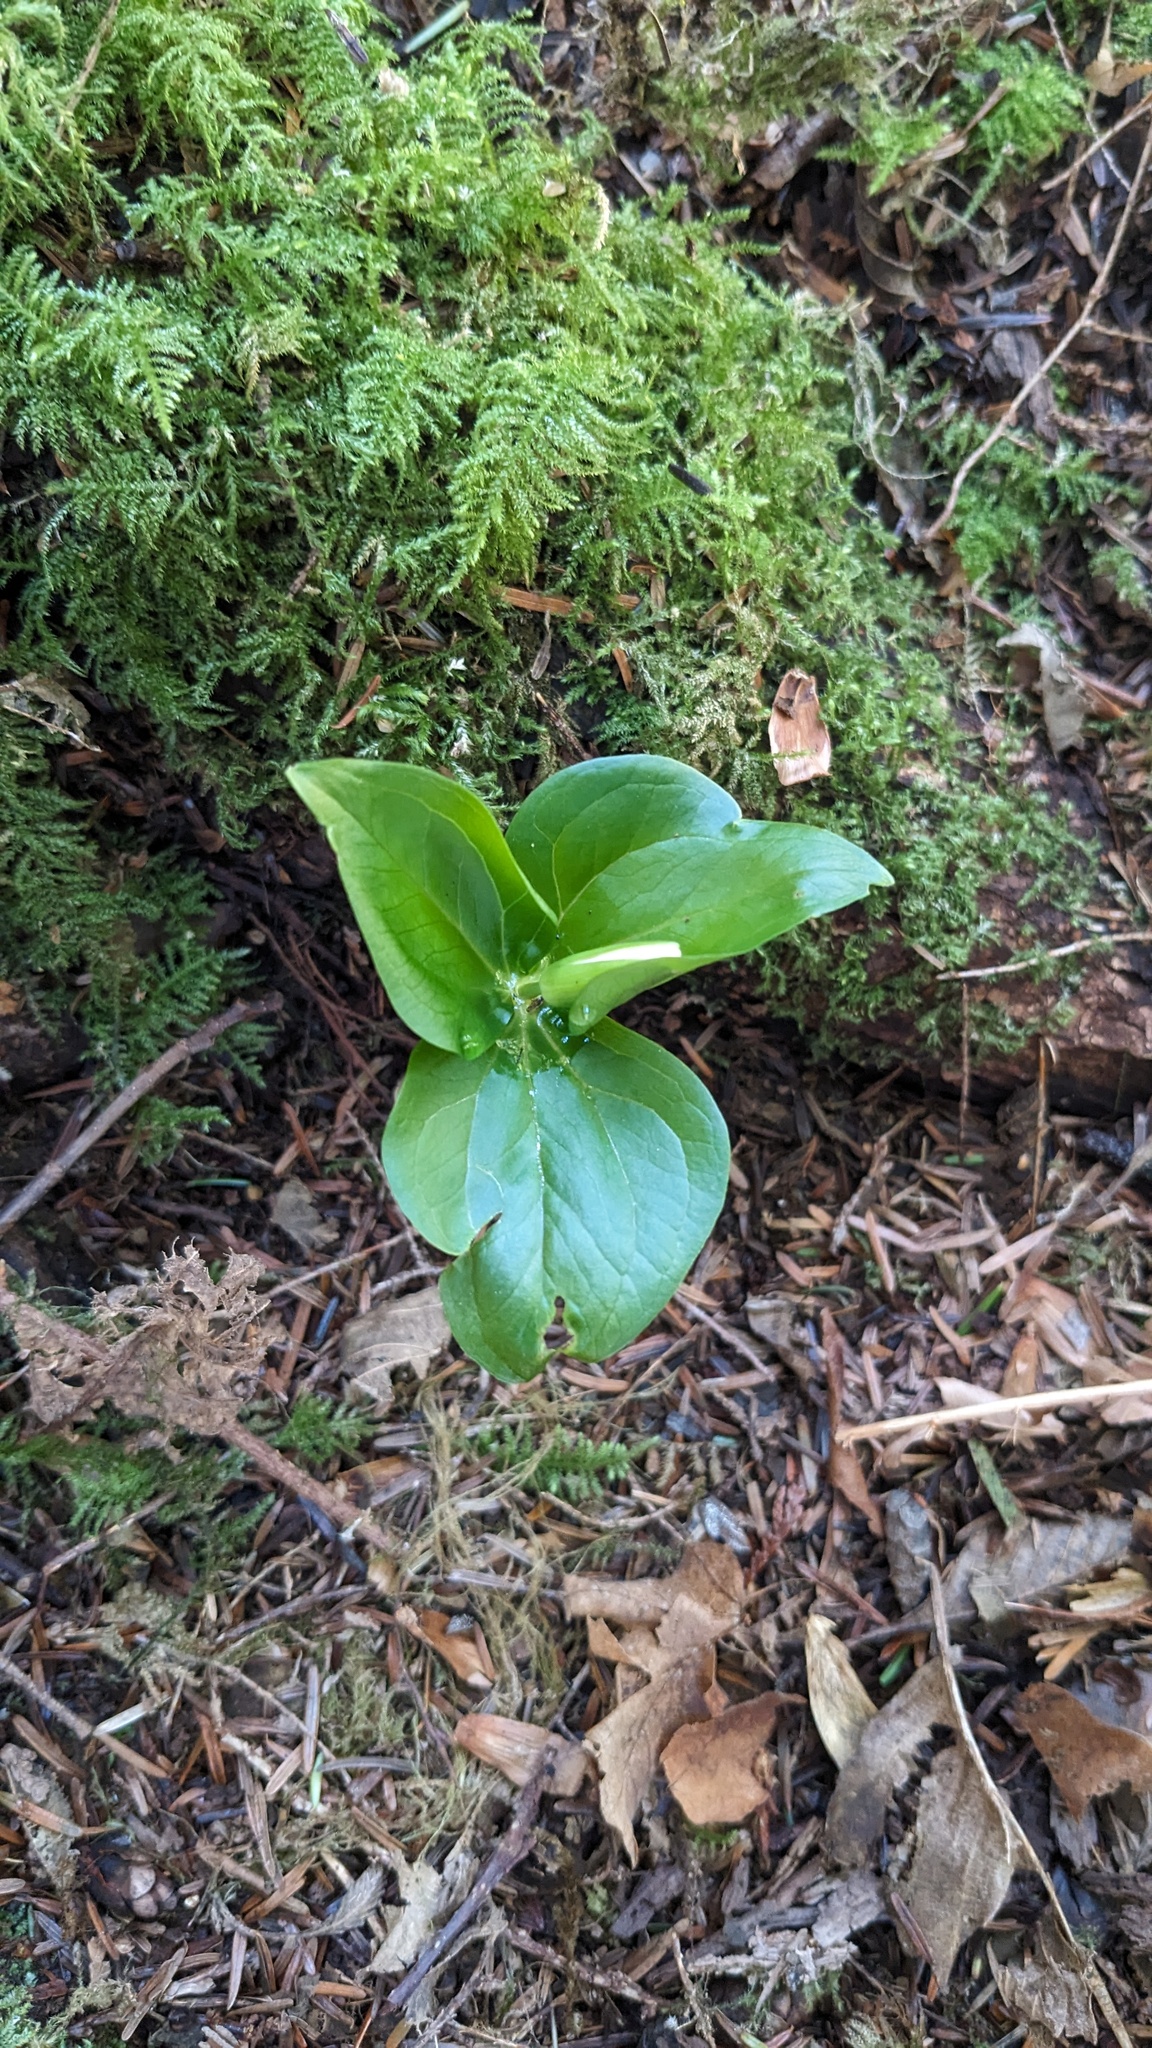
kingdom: Plantae
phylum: Tracheophyta
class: Liliopsida
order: Liliales
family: Melanthiaceae
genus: Trillium
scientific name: Trillium ovatum
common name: Pacific trillium
